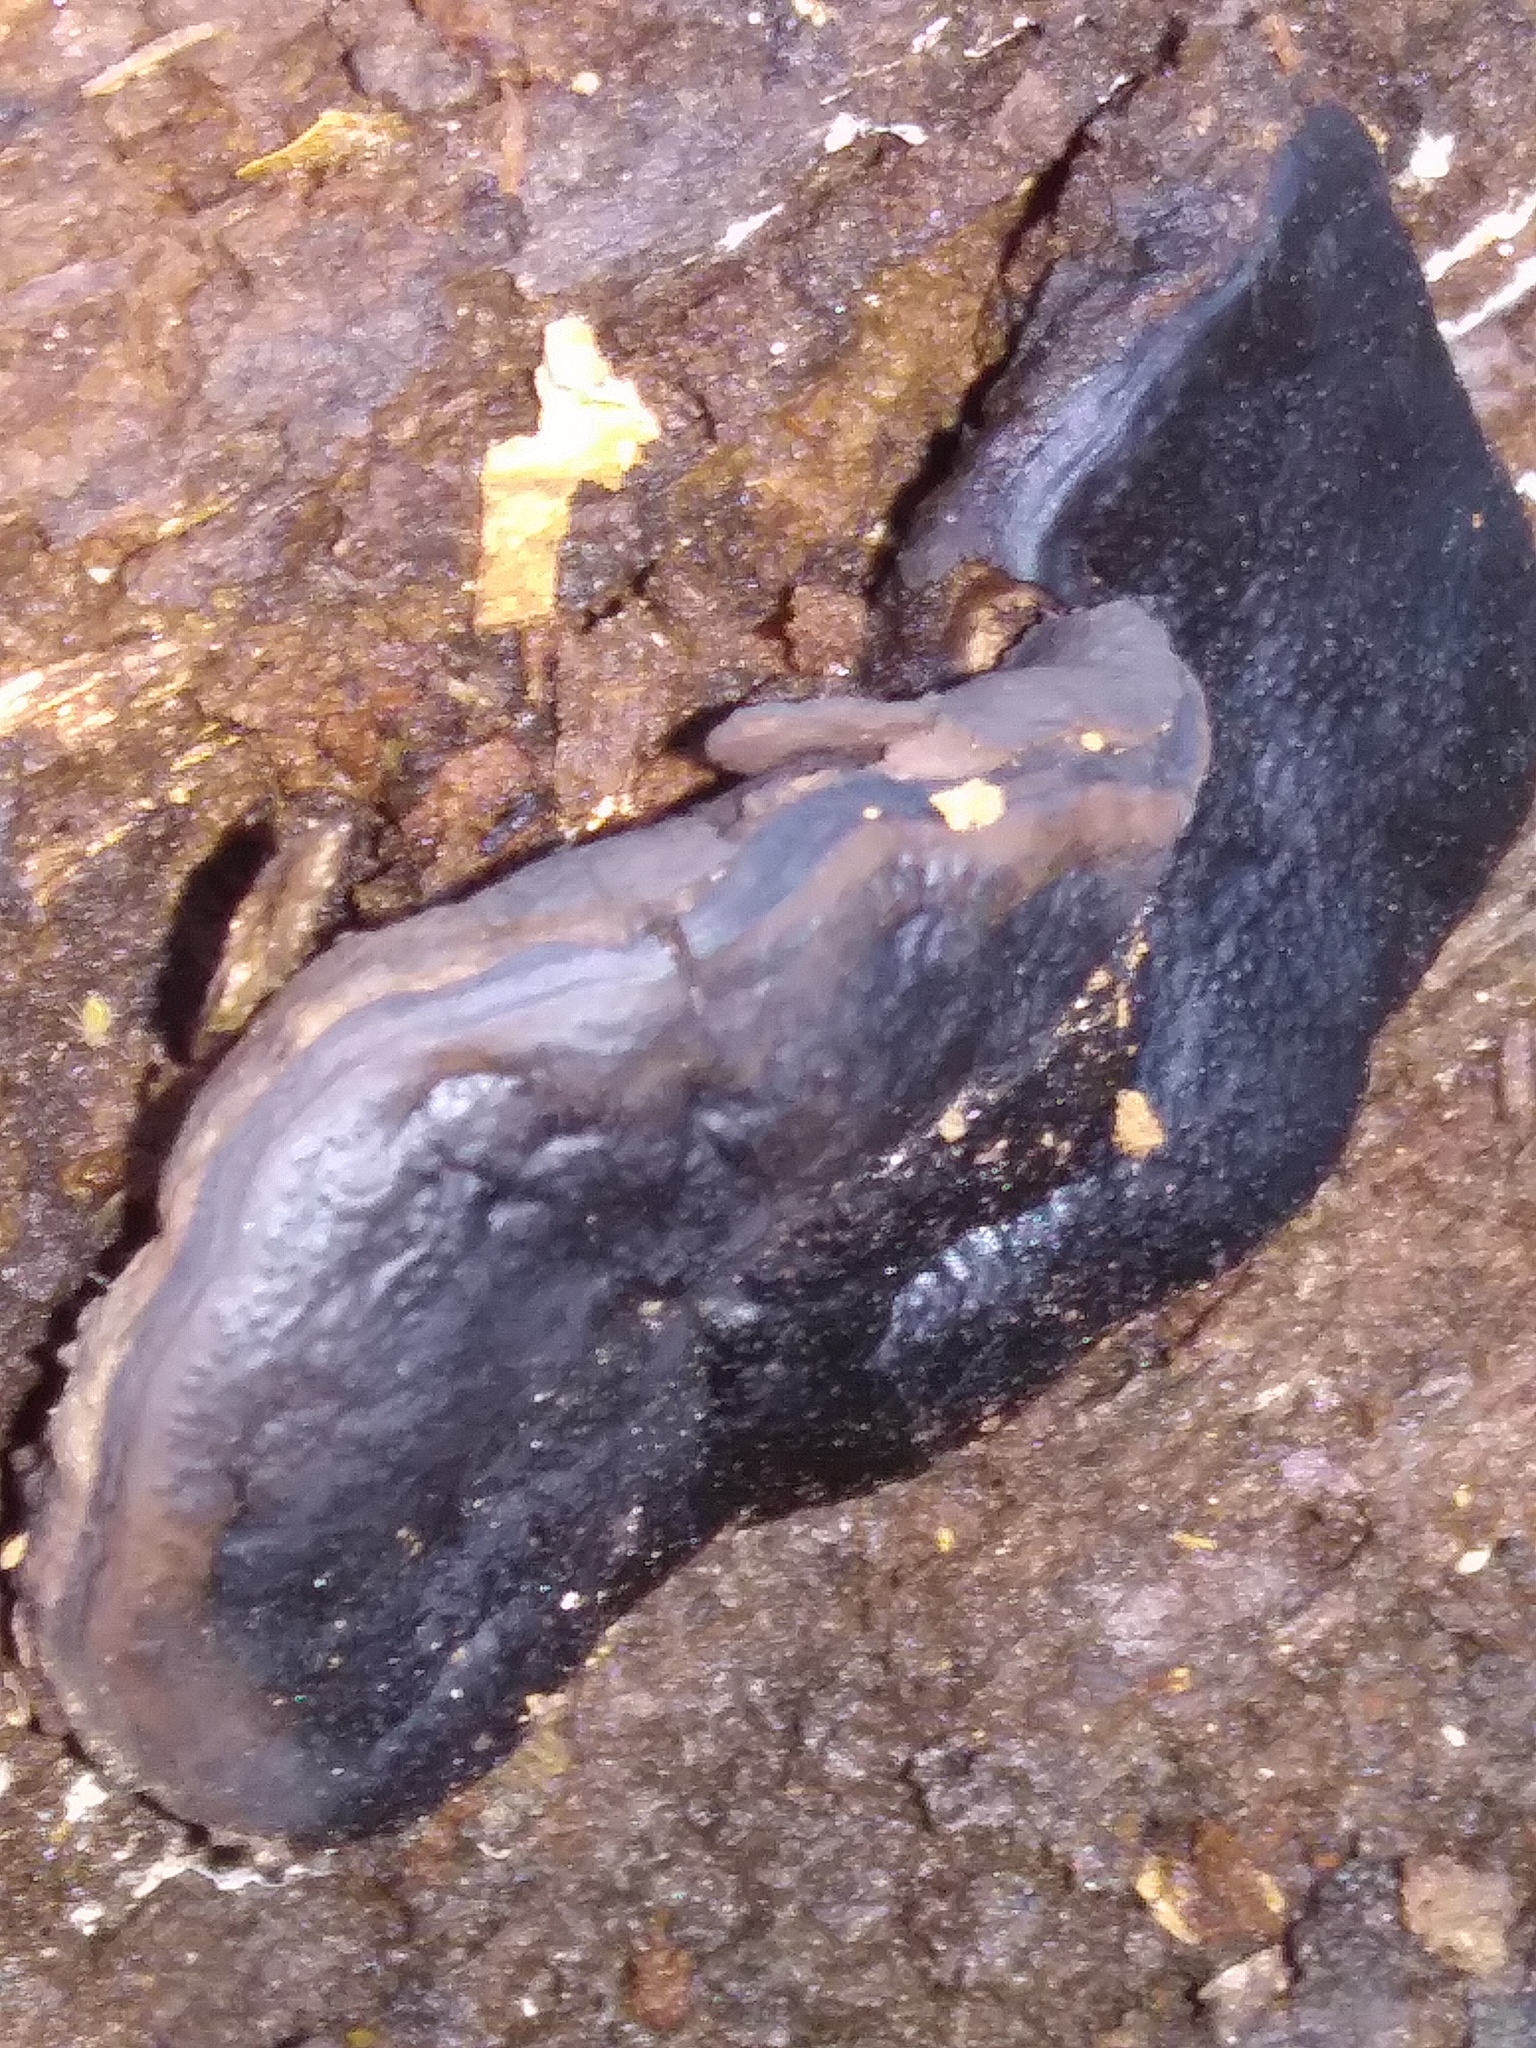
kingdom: Fungi
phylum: Ascomycota
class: Sordariomycetes
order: Boliniales
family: Boliniaceae
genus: Camarops
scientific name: Camarops petersii
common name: Dog's nose fungus
